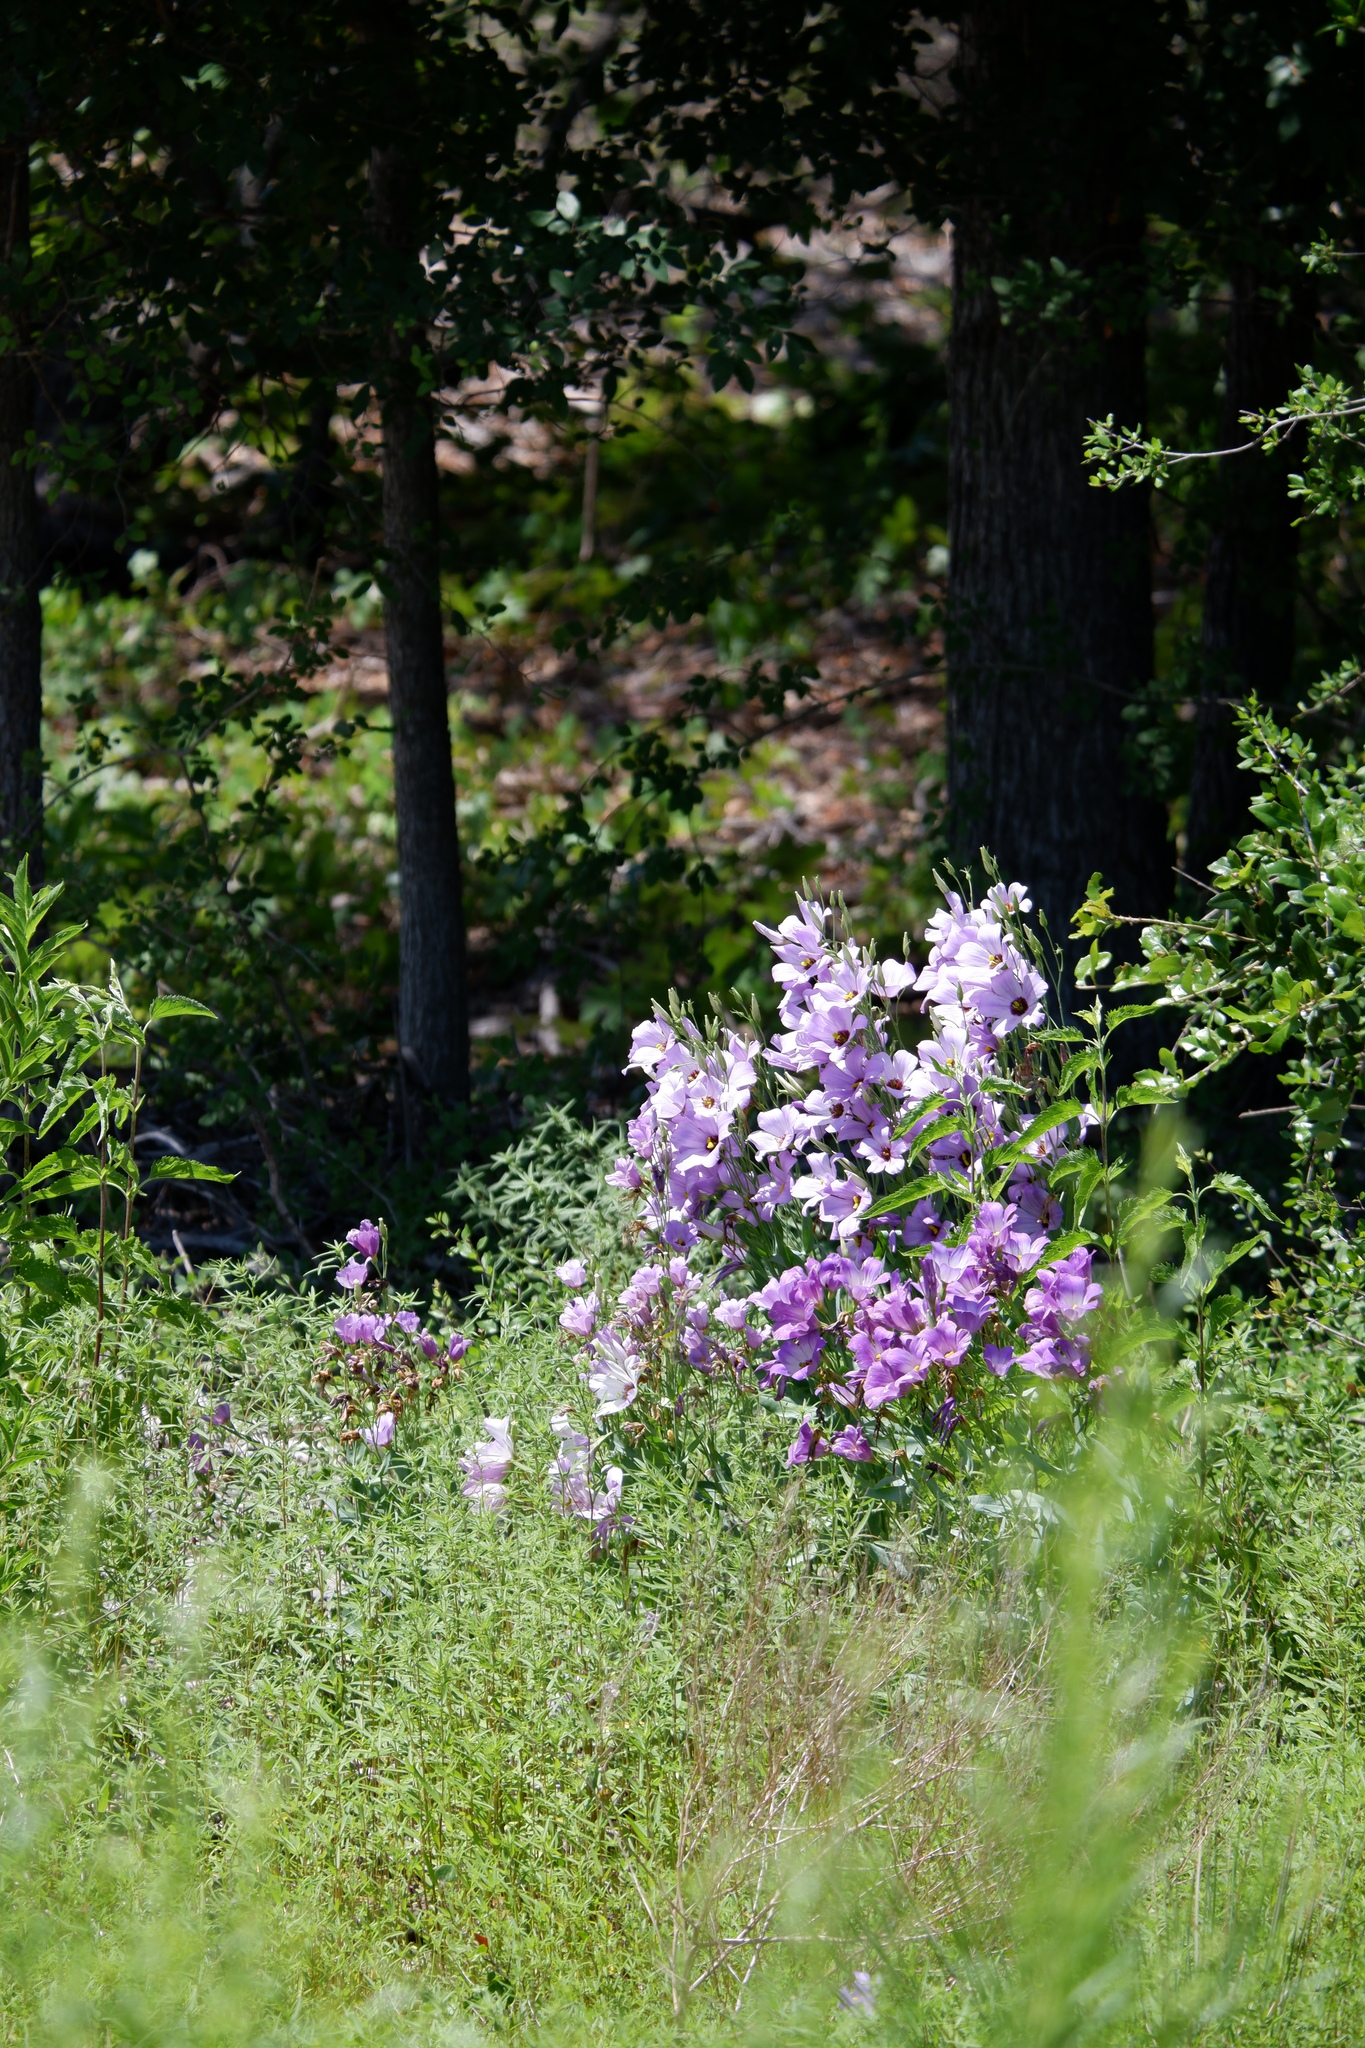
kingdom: Plantae
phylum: Tracheophyta
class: Magnoliopsida
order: Gentianales
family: Gentianaceae
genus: Eustoma
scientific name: Eustoma russellianum
